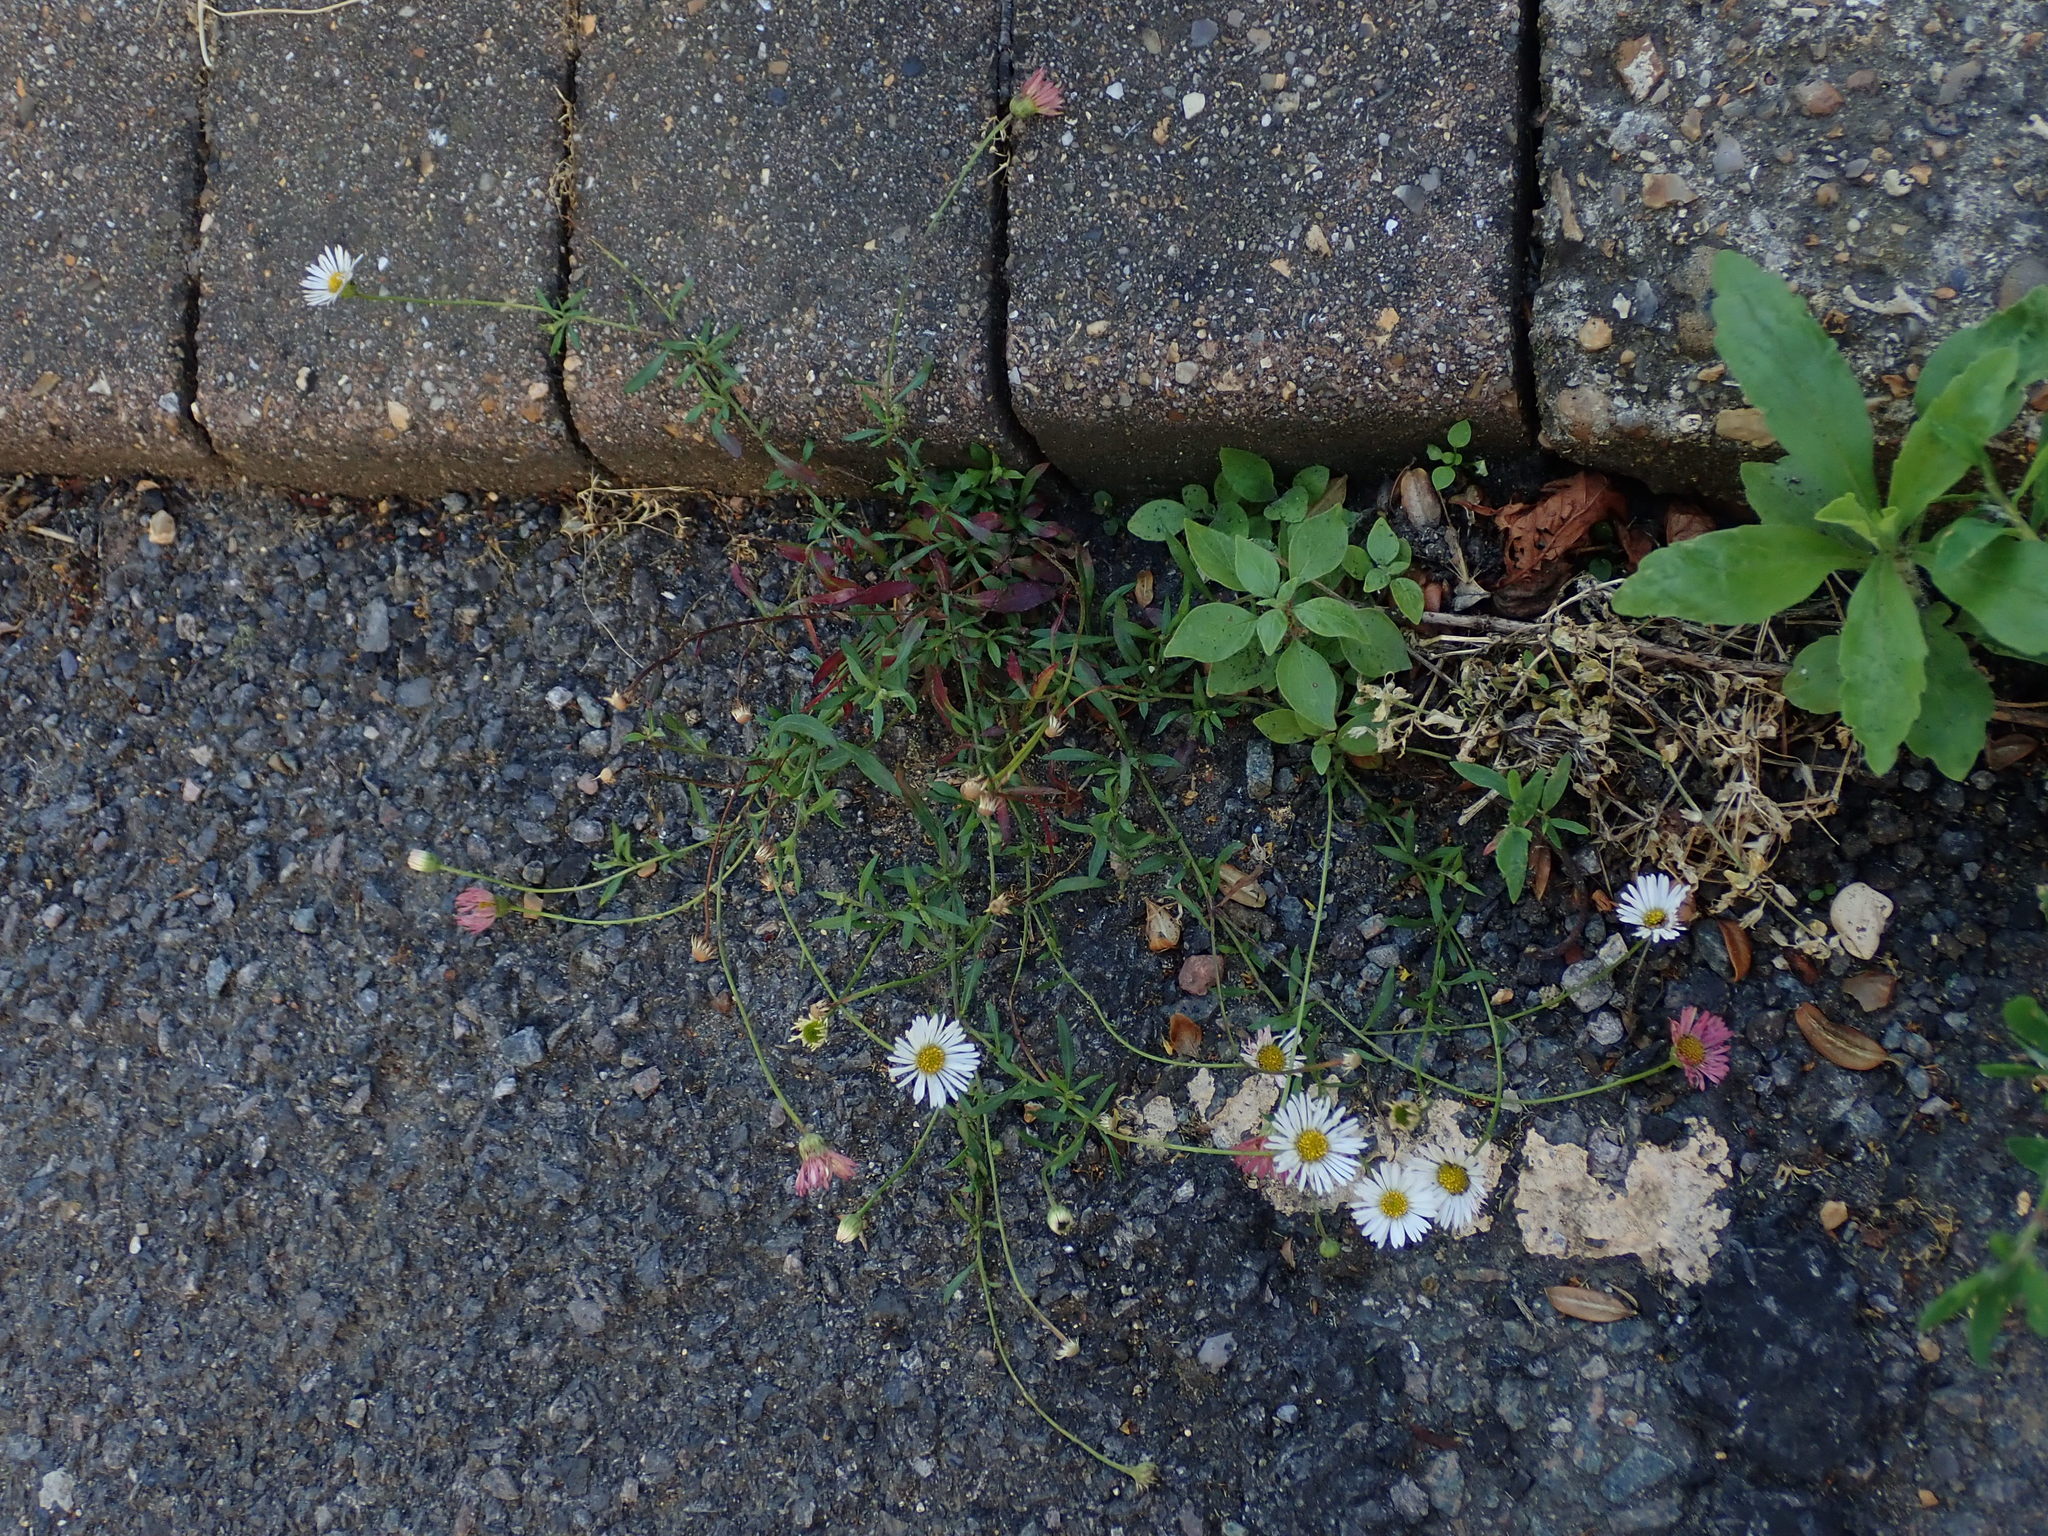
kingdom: Plantae
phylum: Tracheophyta
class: Magnoliopsida
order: Asterales
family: Asteraceae
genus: Erigeron
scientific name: Erigeron karvinskianus
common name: Mexican fleabane
